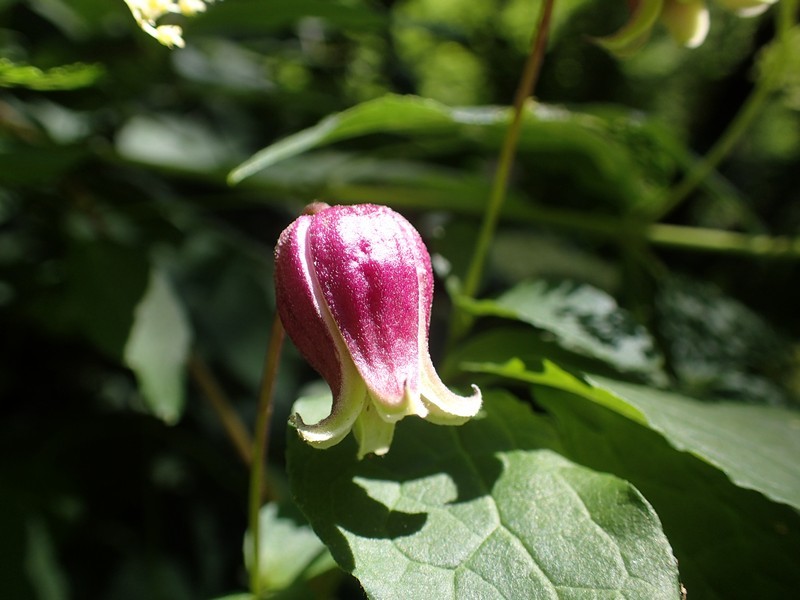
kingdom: Plantae
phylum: Tracheophyta
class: Magnoliopsida
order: Ranunculales
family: Ranunculaceae
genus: Clematis
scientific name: Clematis viorna
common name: Leather-flower
